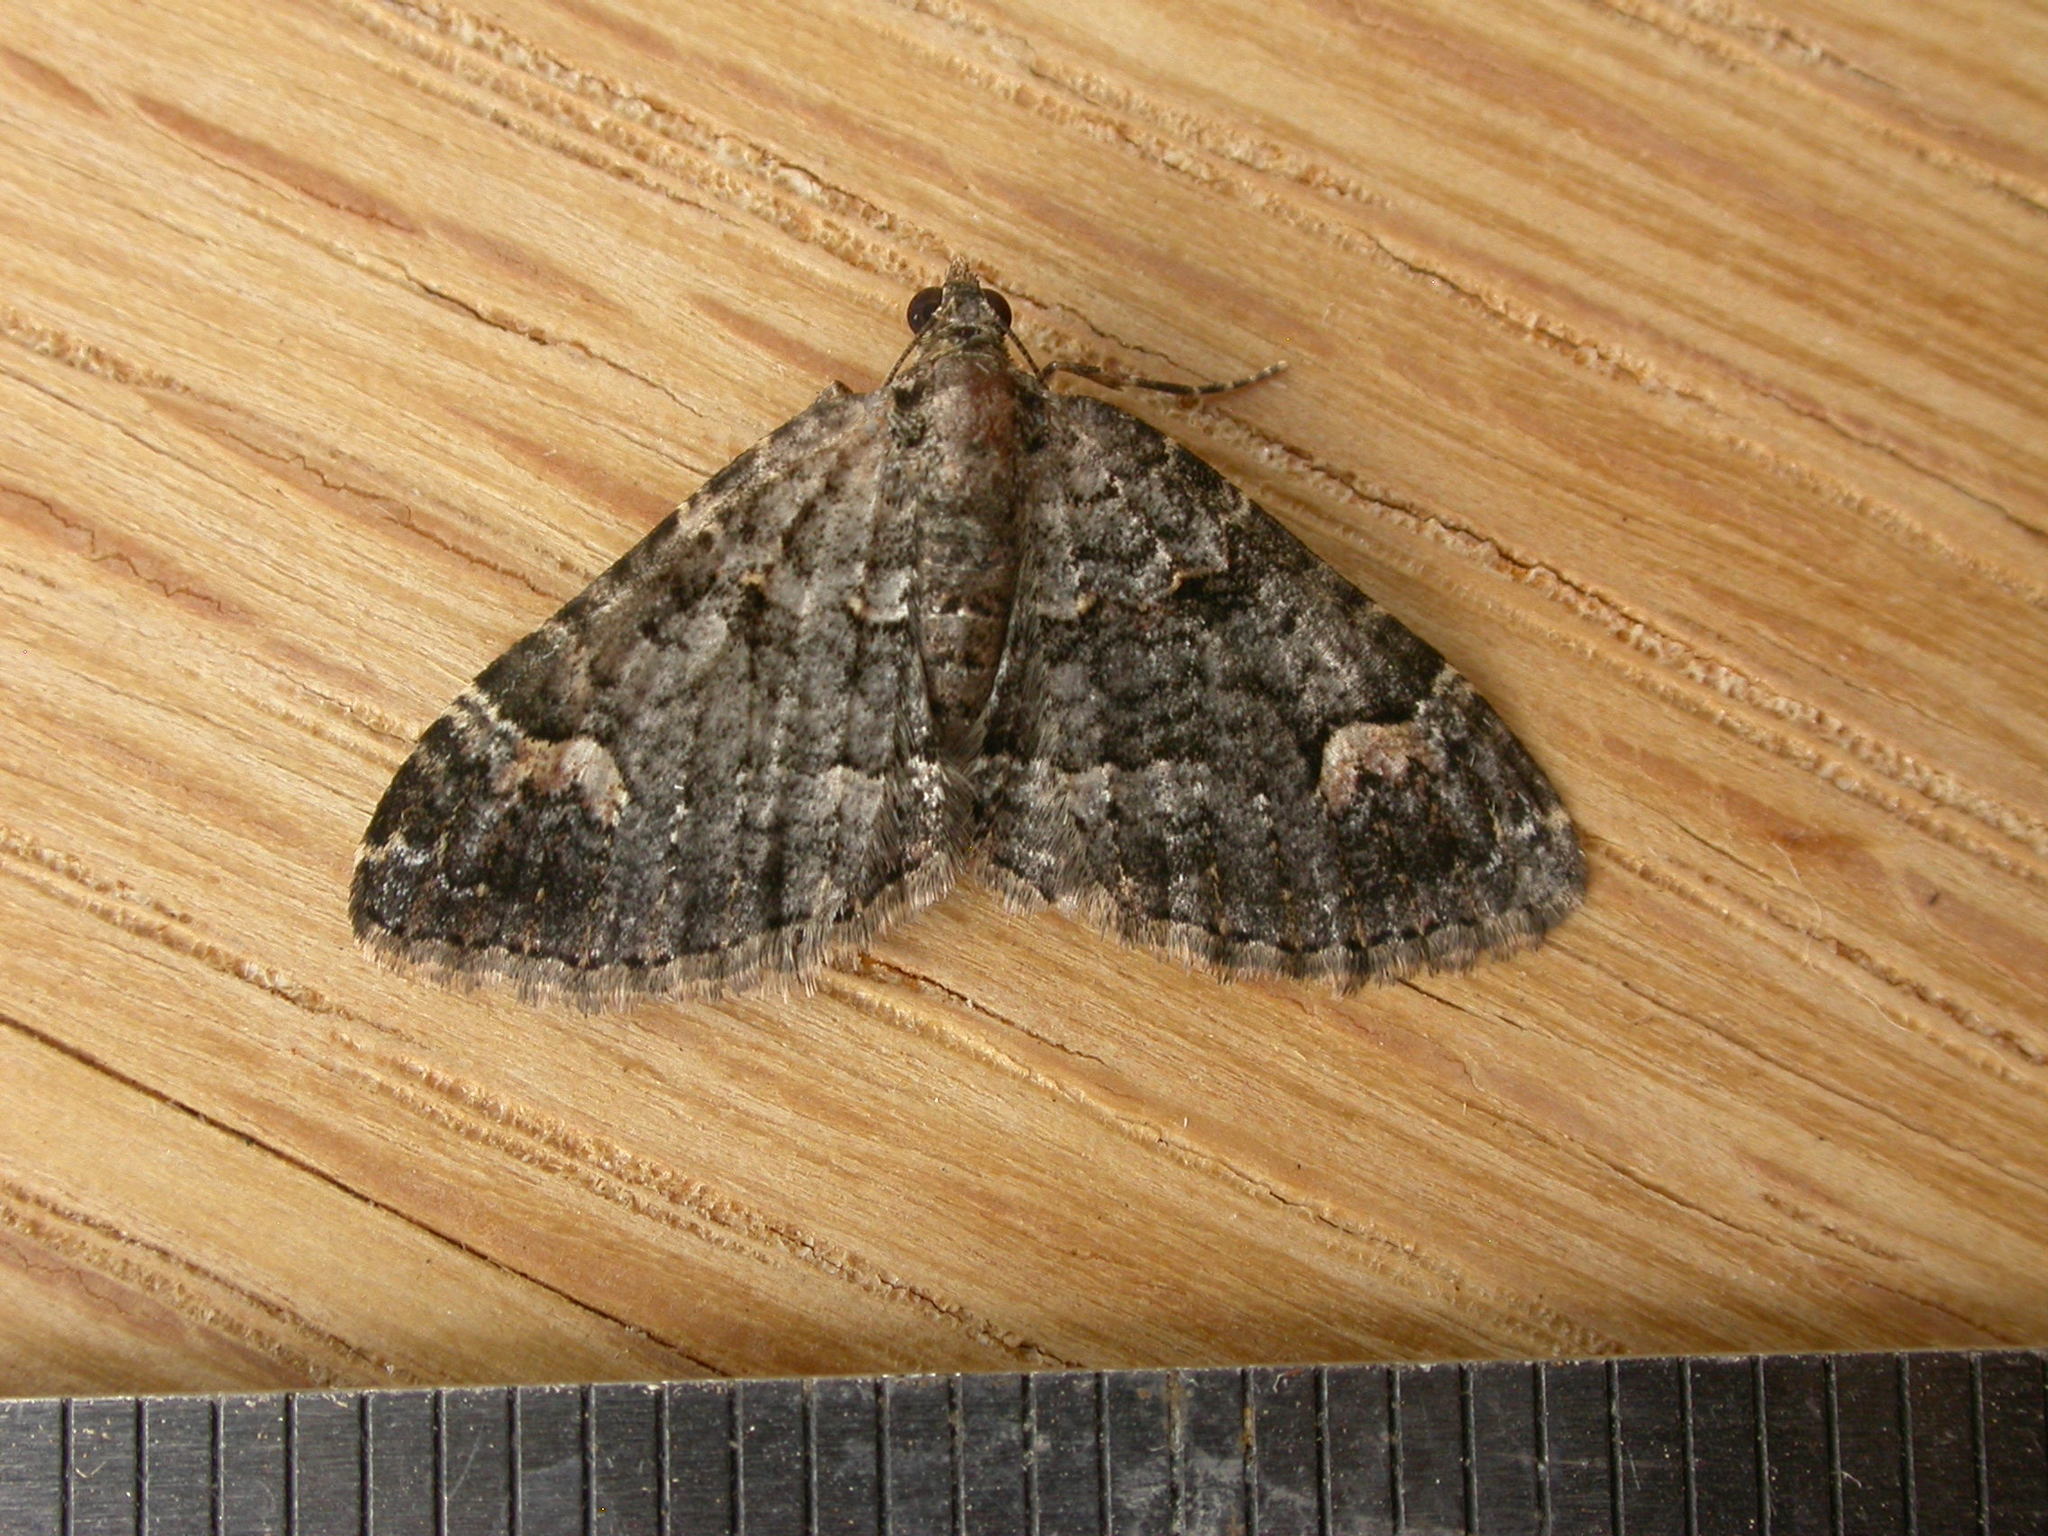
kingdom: Animalia
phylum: Arthropoda
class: Insecta
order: Lepidoptera
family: Geometridae
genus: Epyaxa
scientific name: Epyaxa sodaliata
